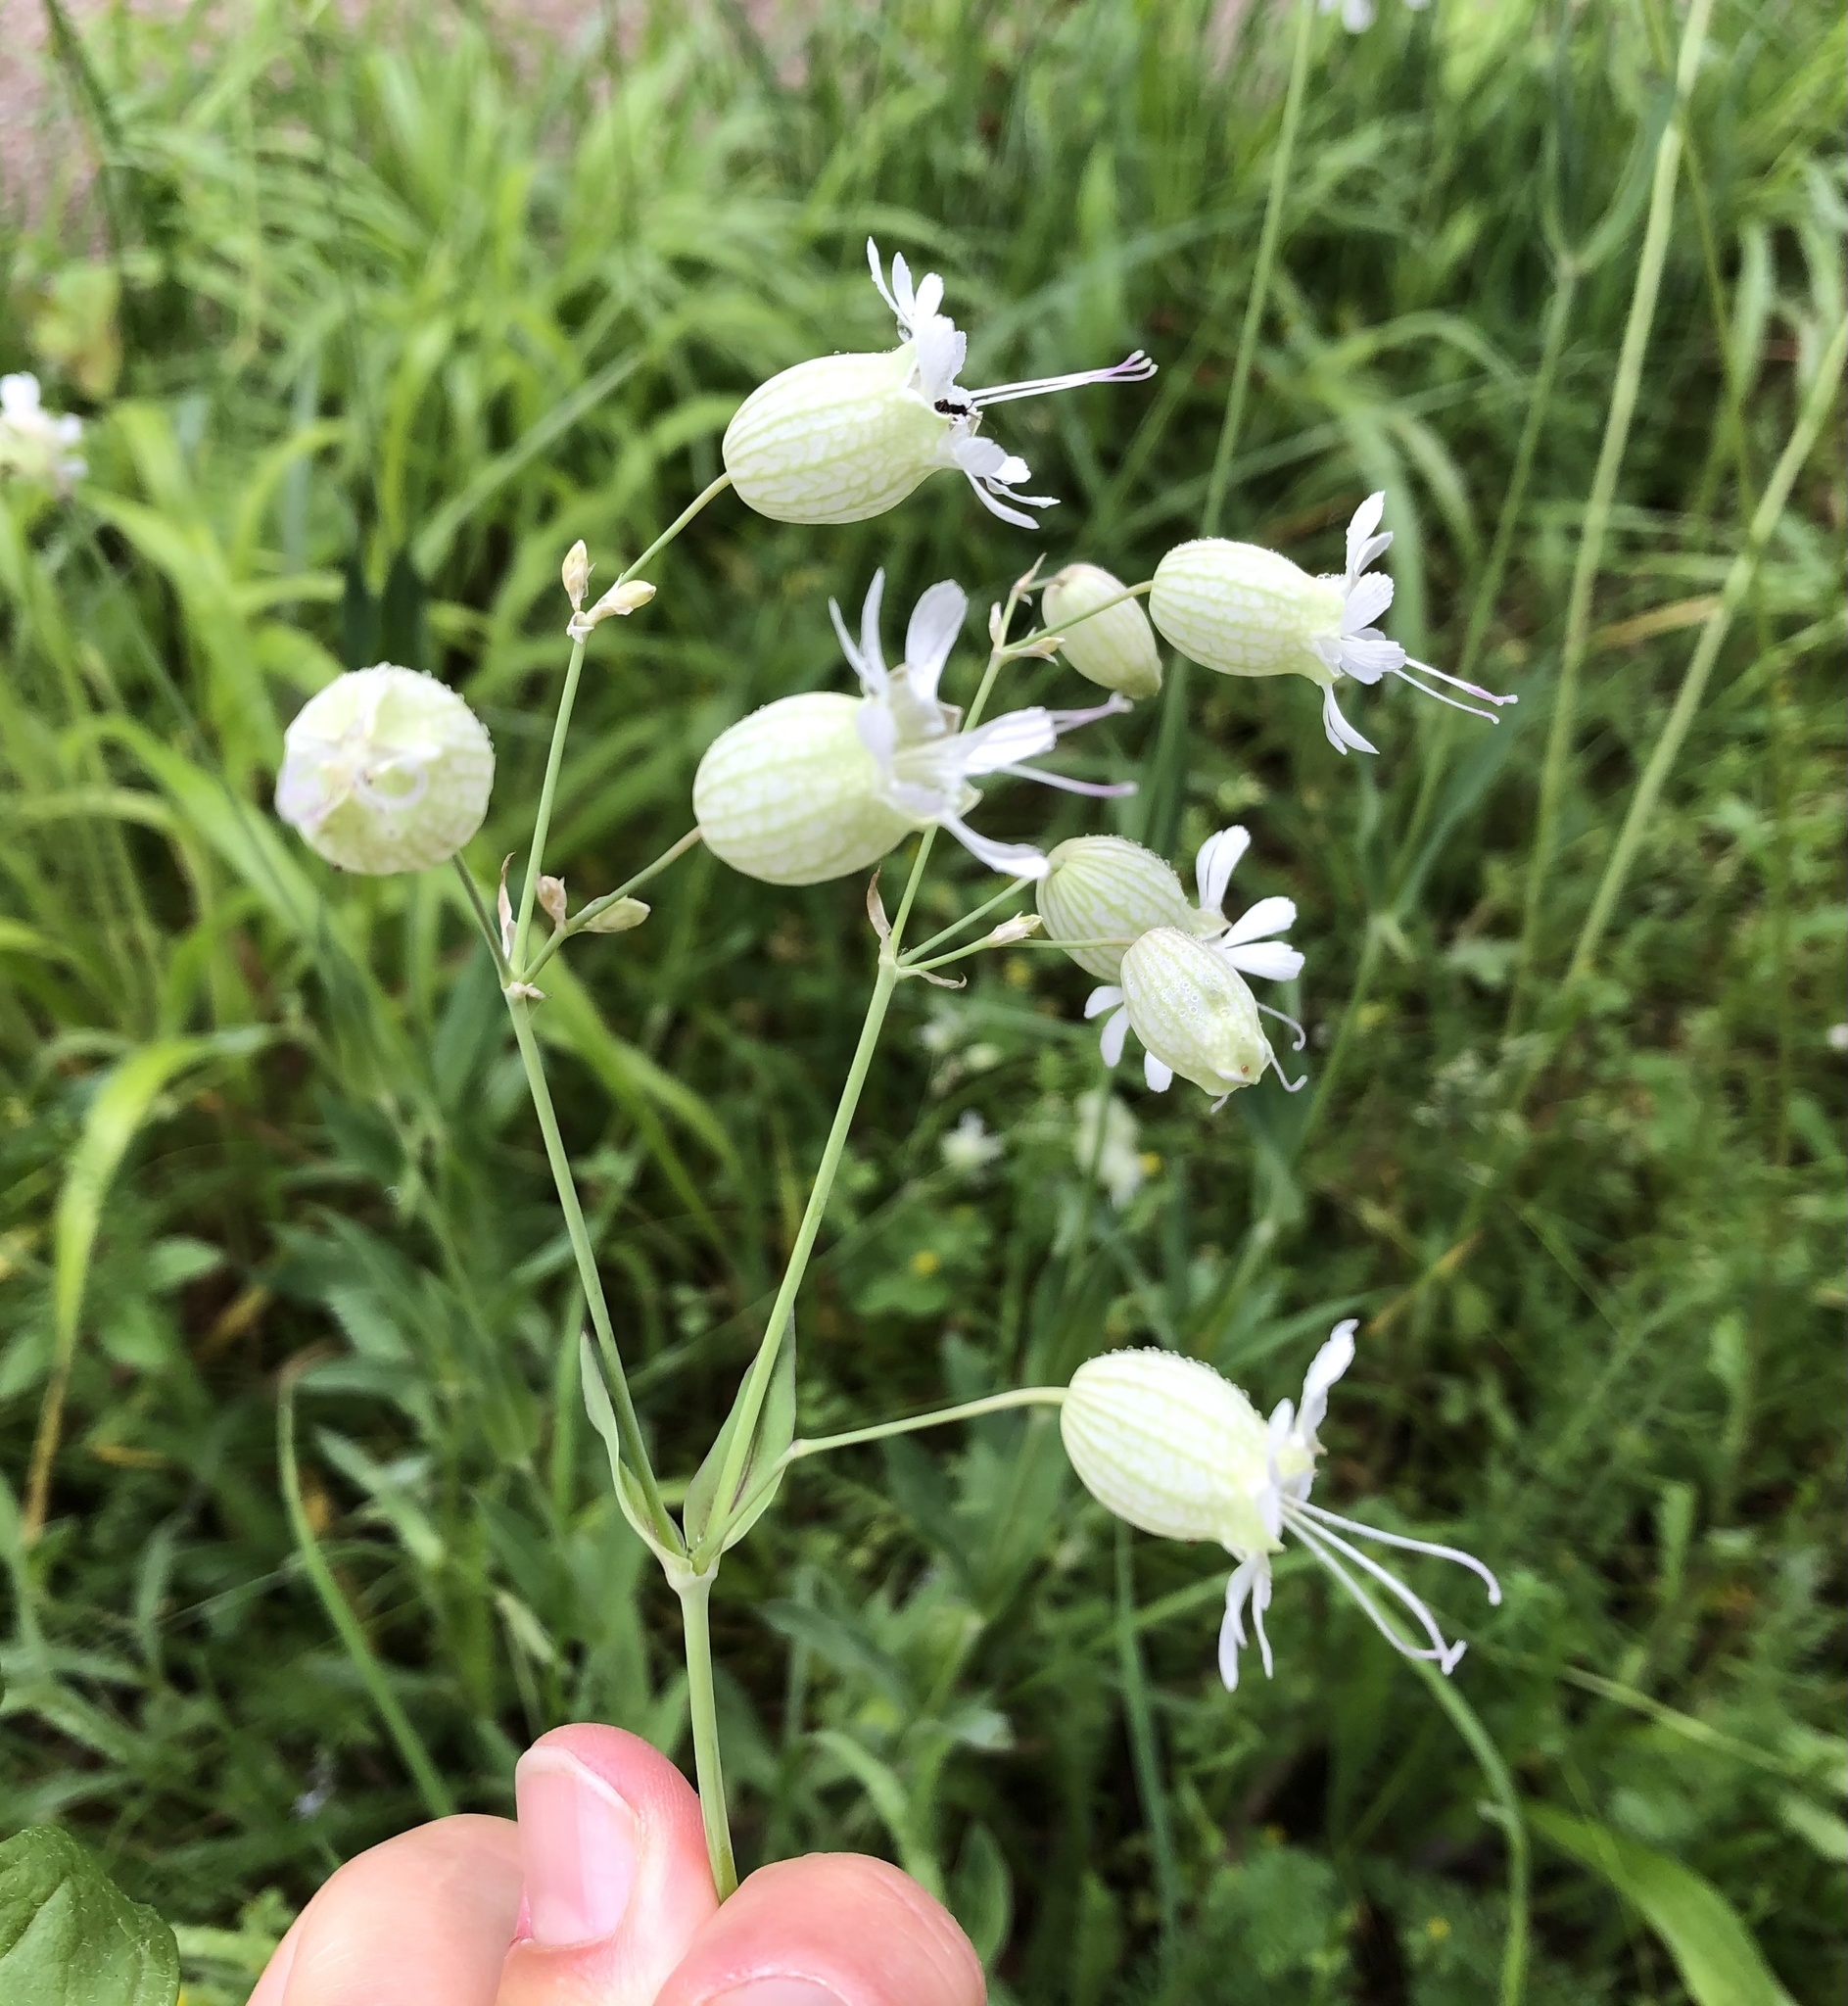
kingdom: Plantae
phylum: Tracheophyta
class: Magnoliopsida
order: Caryophyllales
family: Caryophyllaceae
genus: Silene
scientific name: Silene vulgaris
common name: Bladder campion
